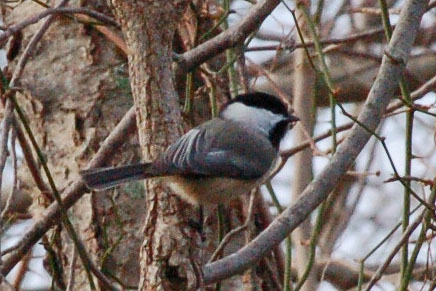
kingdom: Animalia
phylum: Chordata
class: Aves
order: Passeriformes
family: Paridae
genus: Poecile
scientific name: Poecile carolinensis
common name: Carolina chickadee
